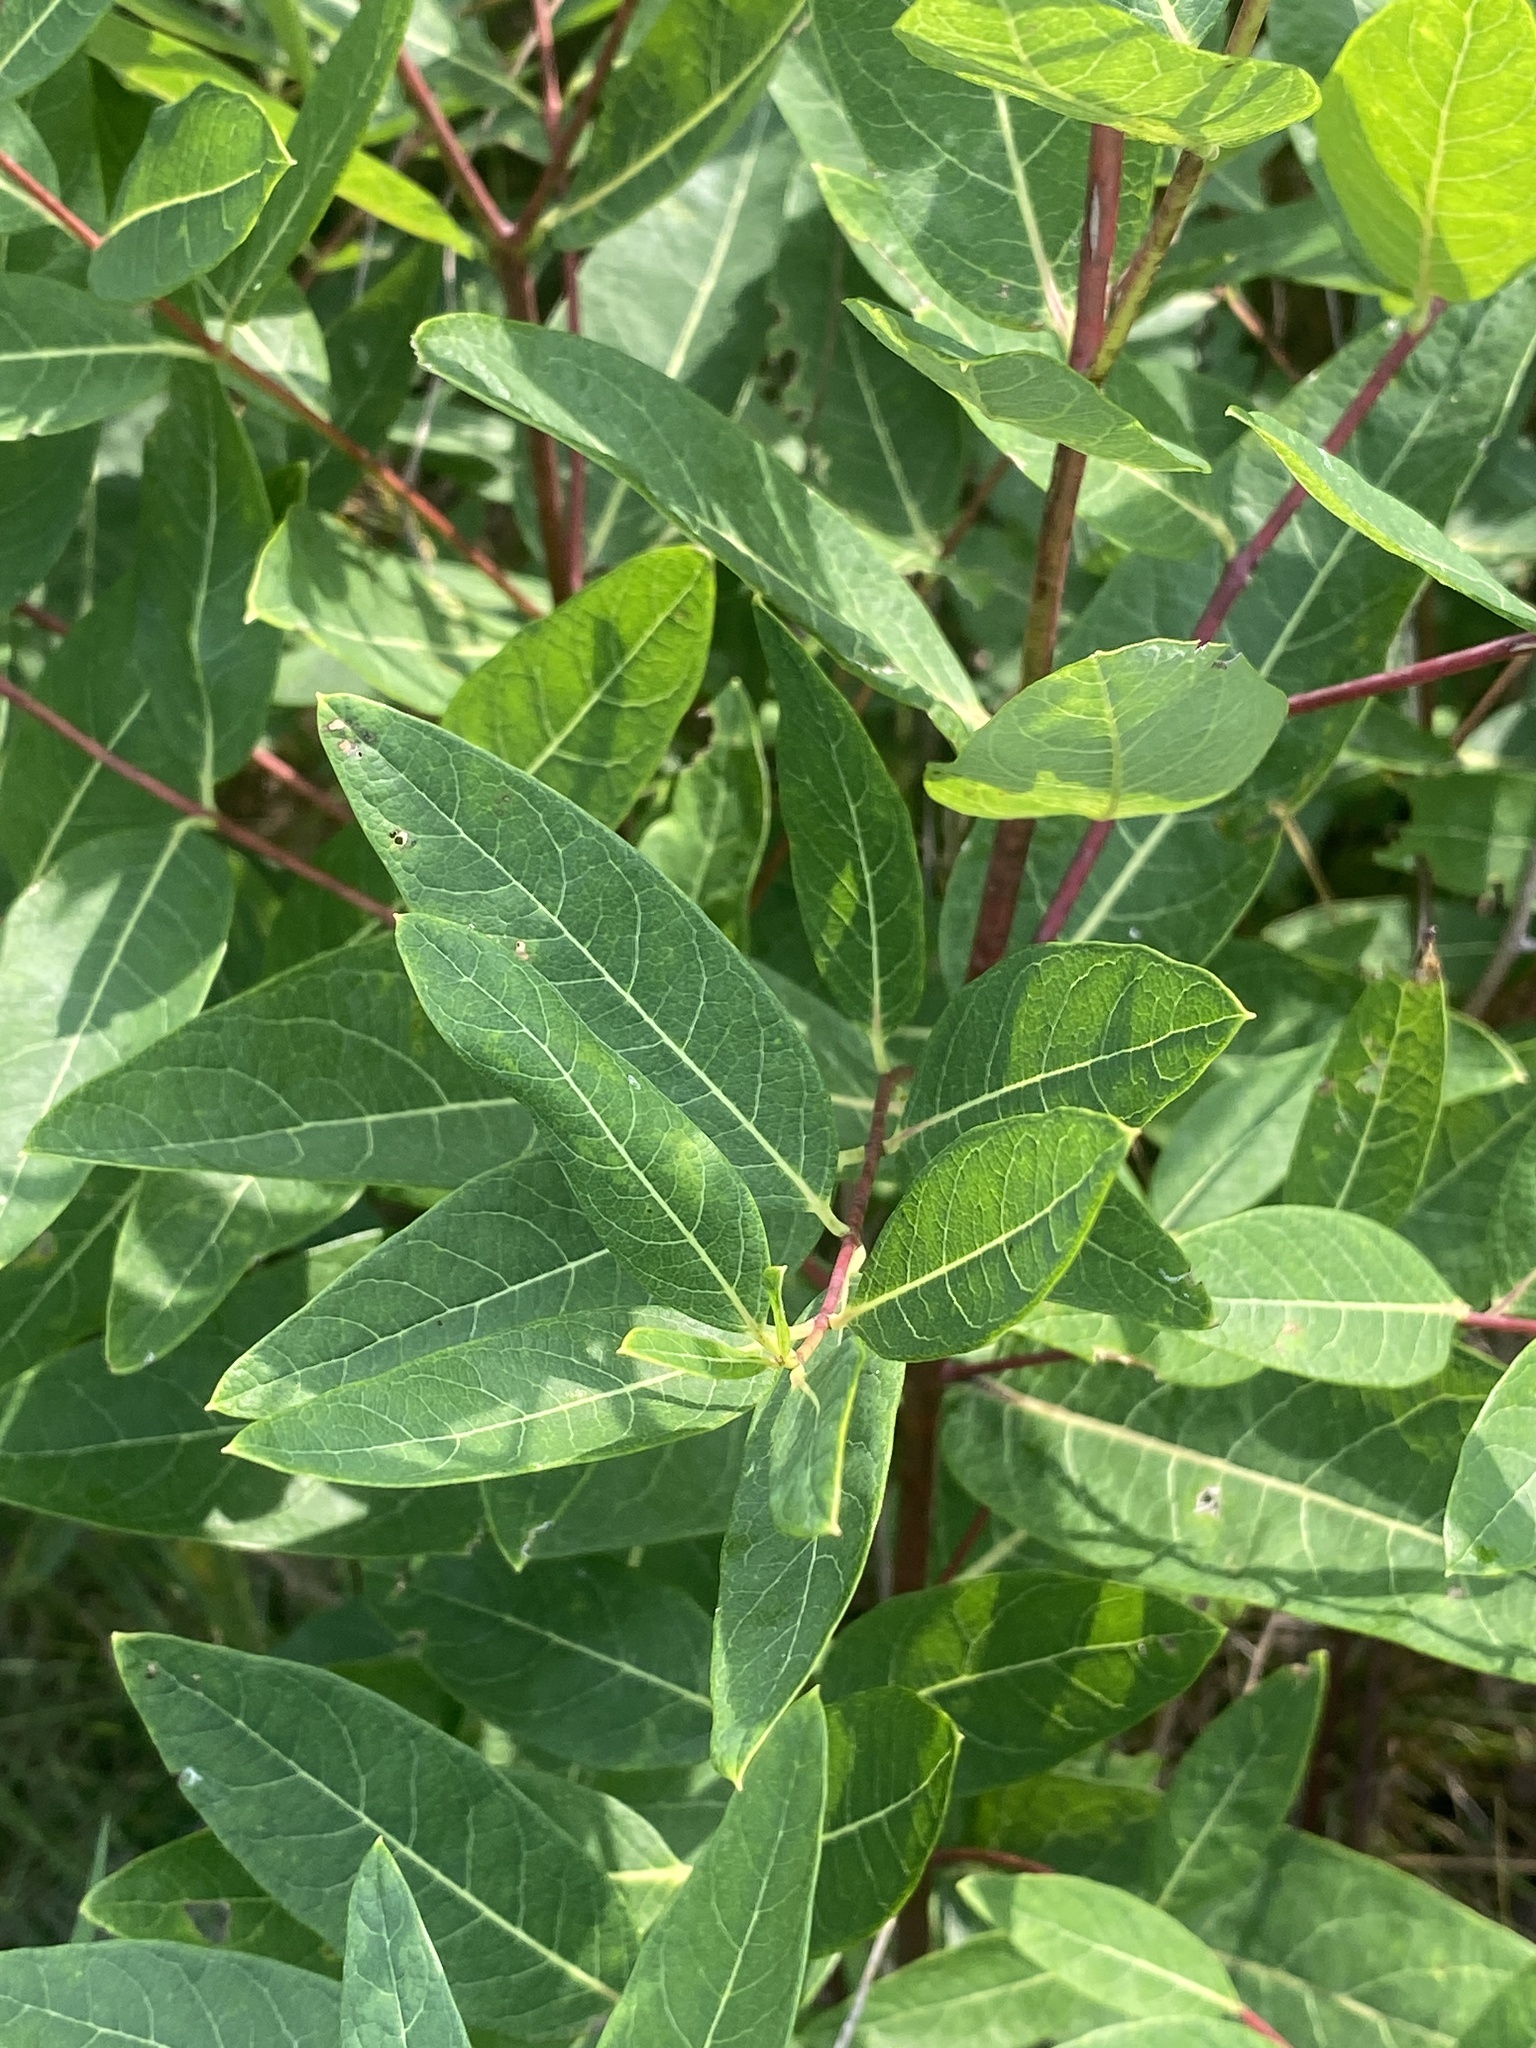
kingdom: Plantae
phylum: Tracheophyta
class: Magnoliopsida
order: Gentianales
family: Apocynaceae
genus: Apocynum
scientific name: Apocynum cannabinum
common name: Hemp dogbane
